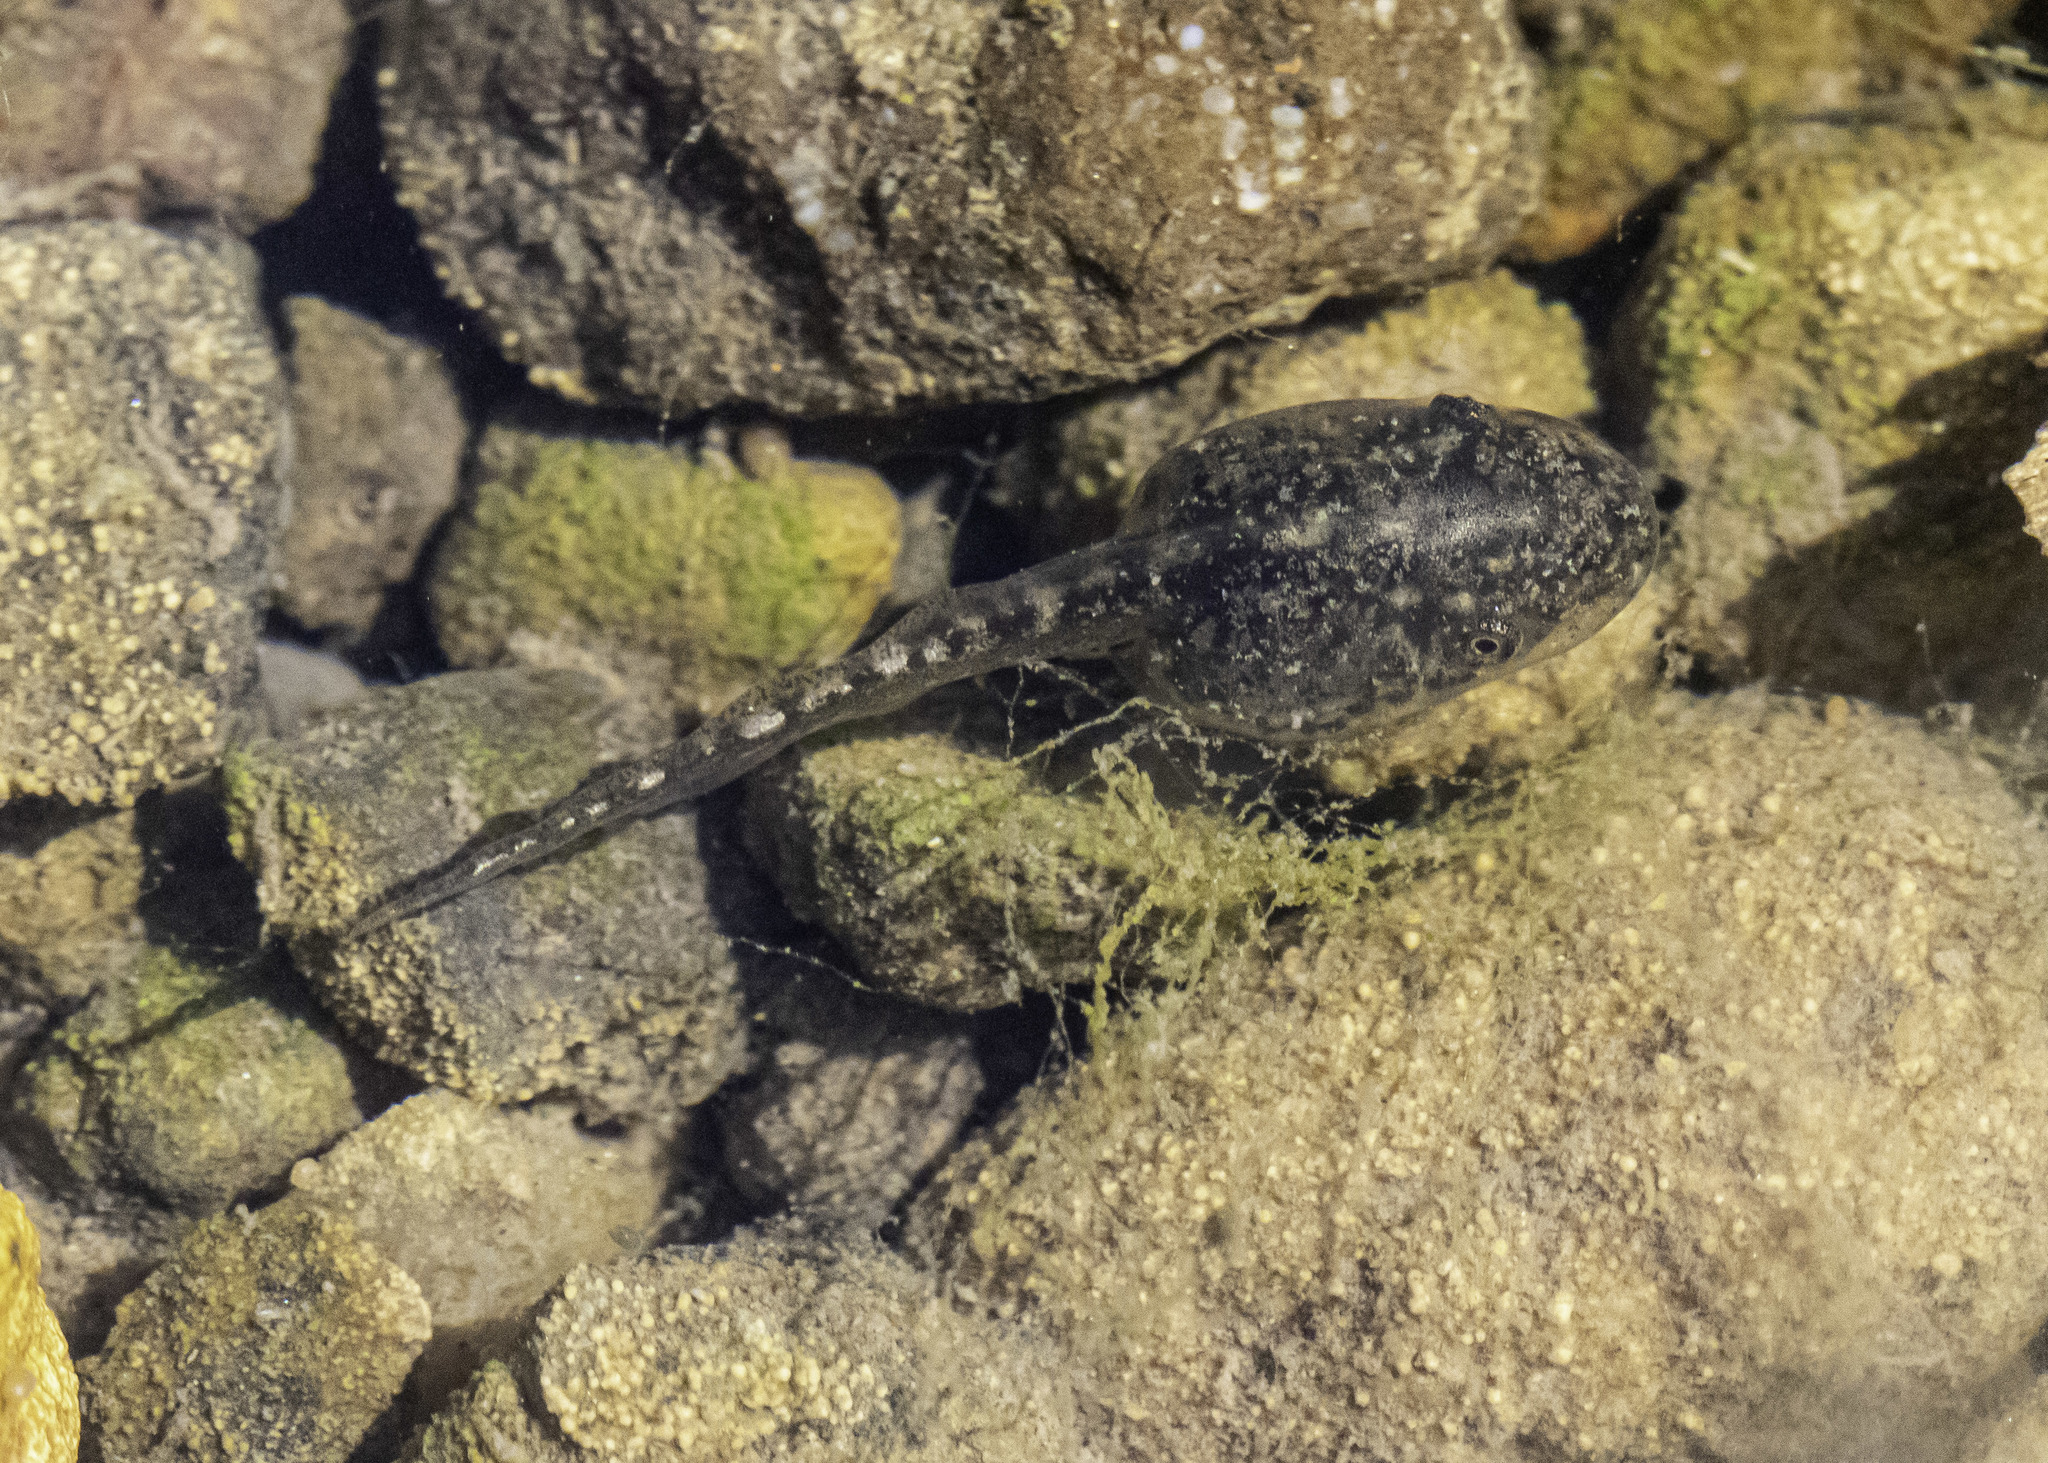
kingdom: Animalia
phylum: Chordata
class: Amphibia
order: Anura
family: Hylidae
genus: Pseudacris
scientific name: Pseudacris regilla
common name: Pacific chorus frog
